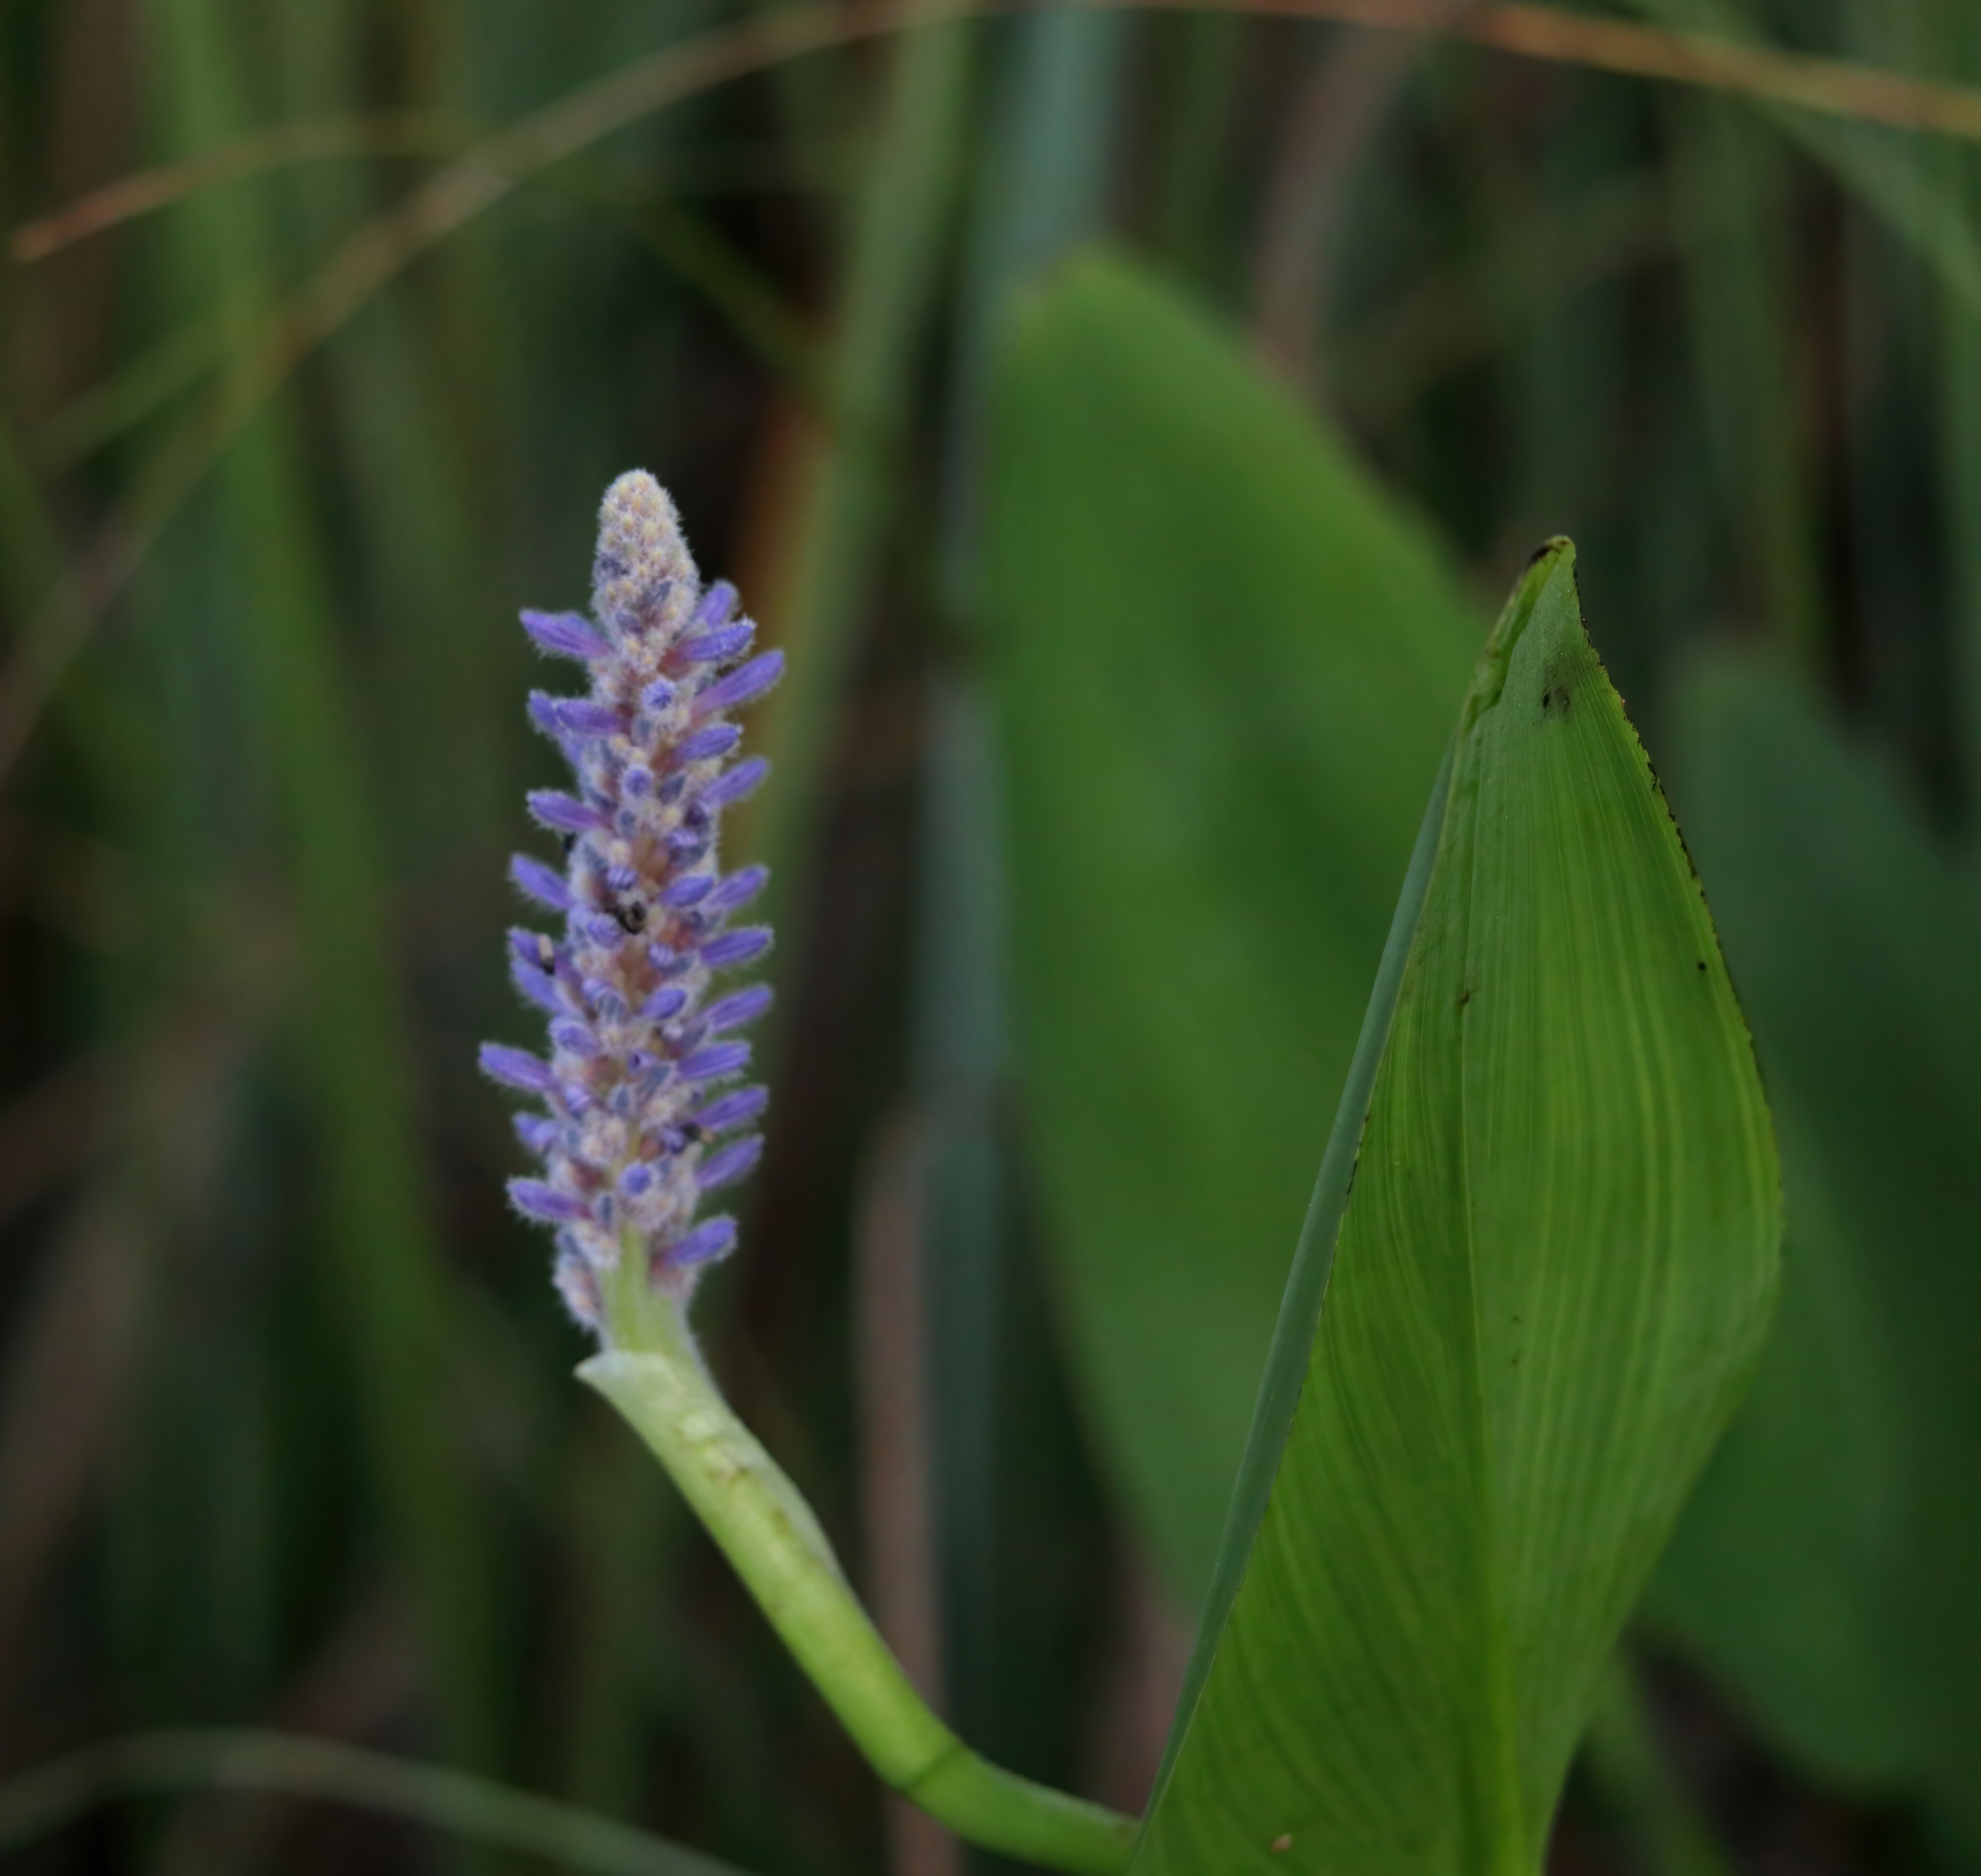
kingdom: Plantae
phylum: Tracheophyta
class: Liliopsida
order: Commelinales
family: Pontederiaceae
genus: Pontederia
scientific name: Pontederia cordata
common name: Pickerelweed
